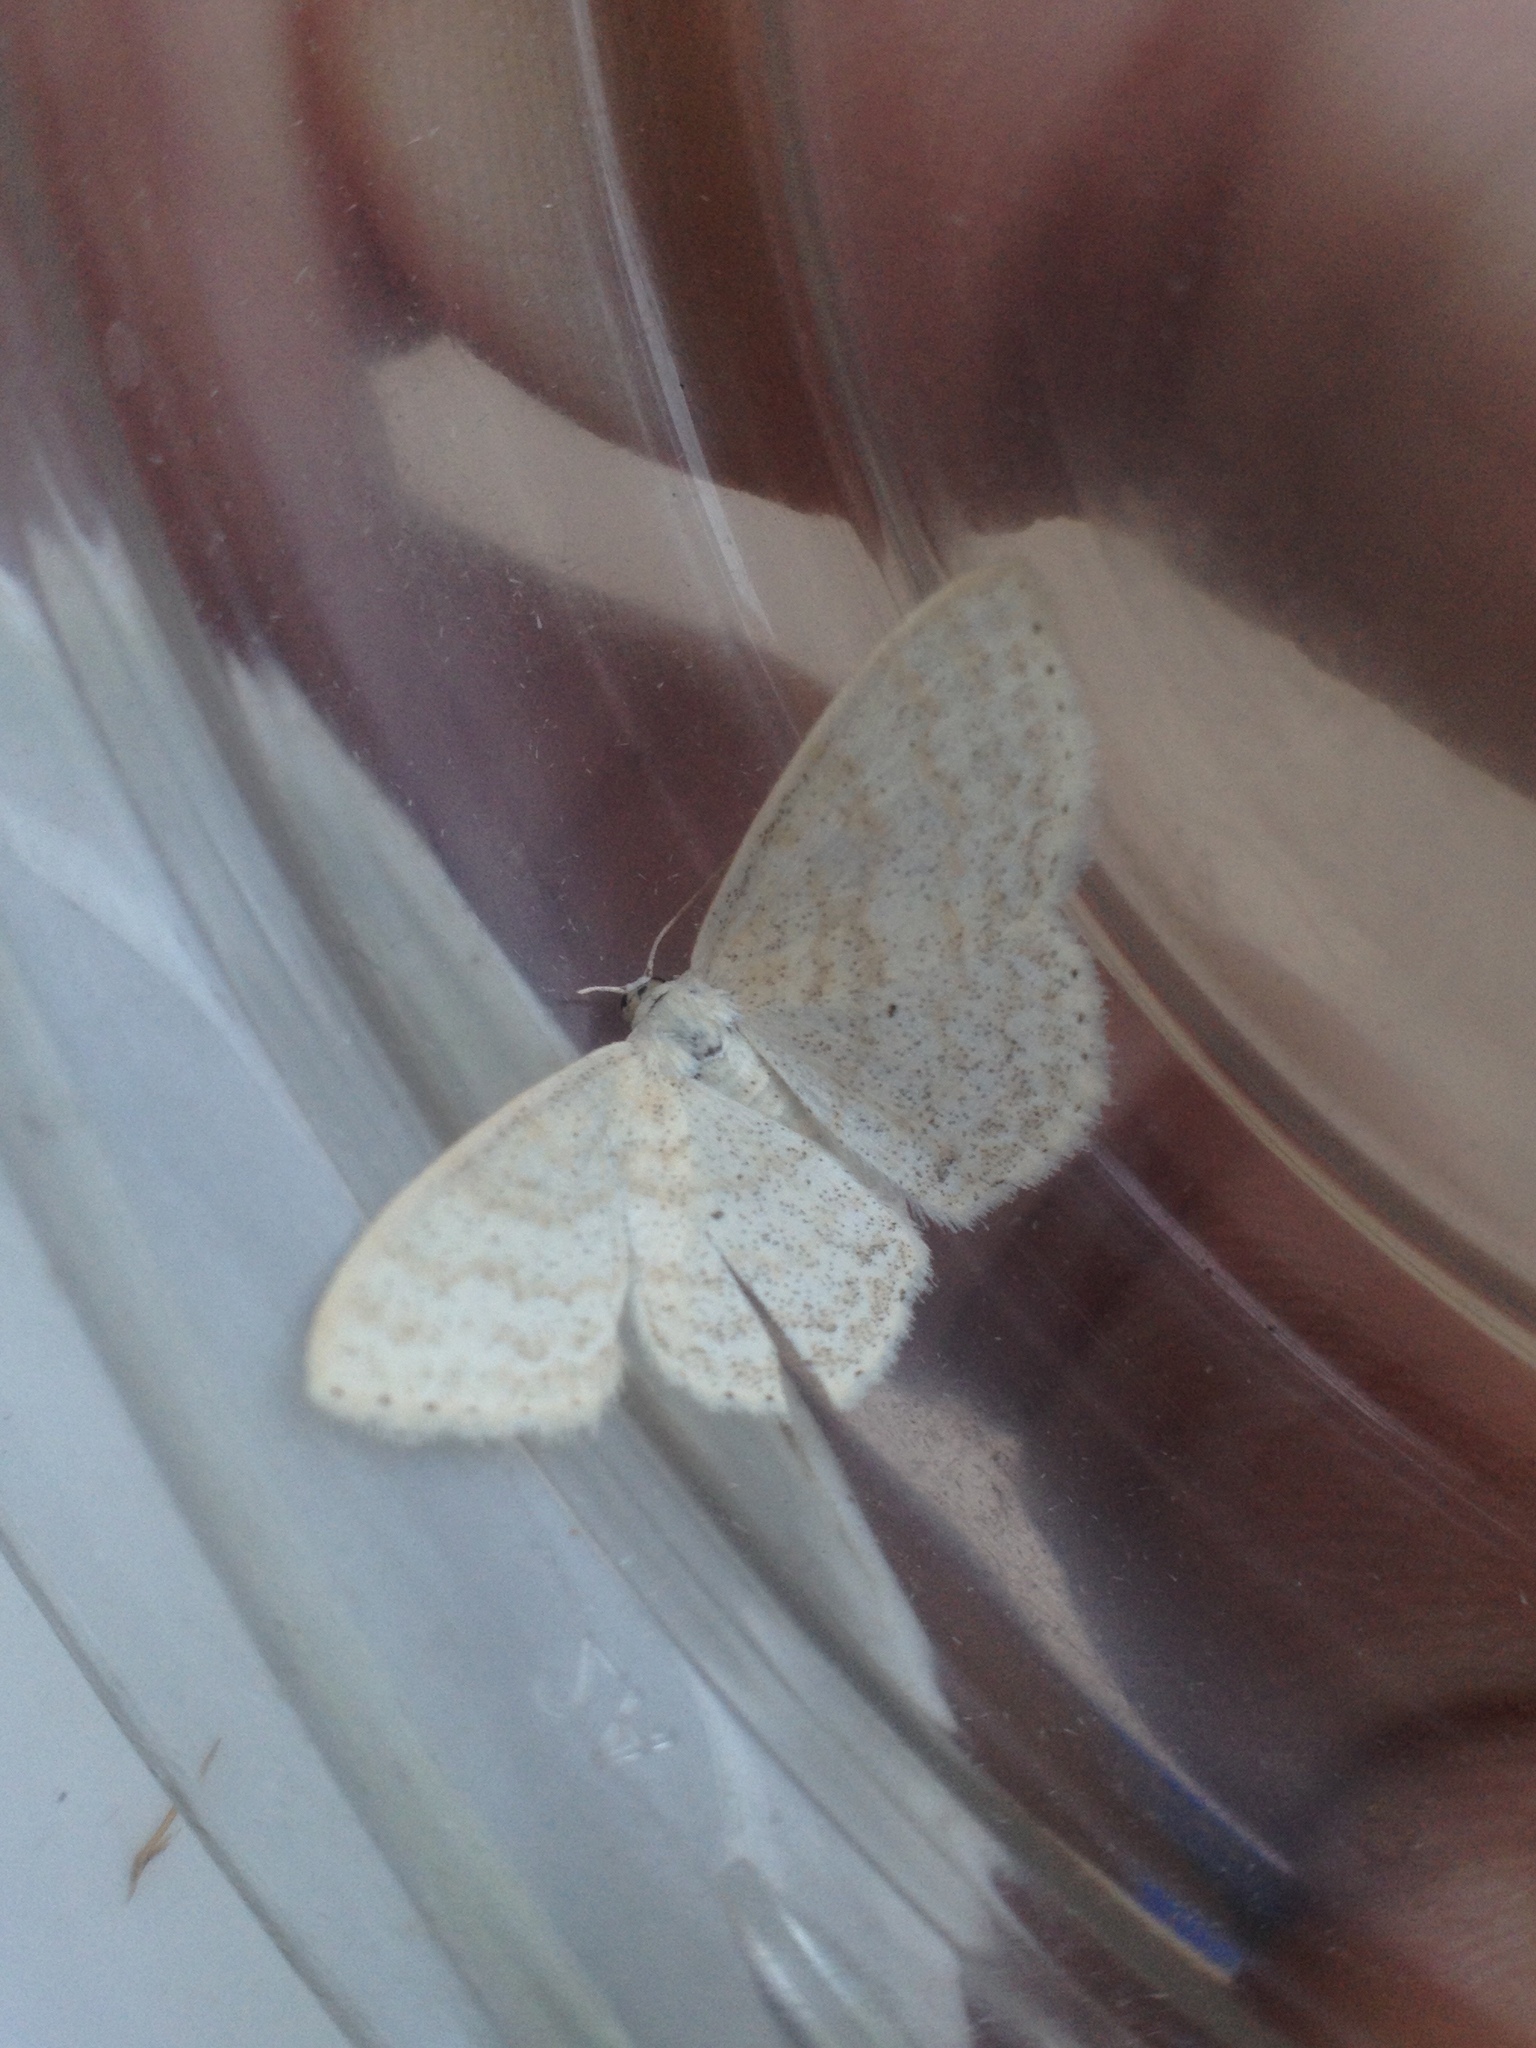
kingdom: Animalia
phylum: Arthropoda
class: Insecta
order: Lepidoptera
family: Geometridae
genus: Scopula
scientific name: Scopula floslactata
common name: Cream wave
